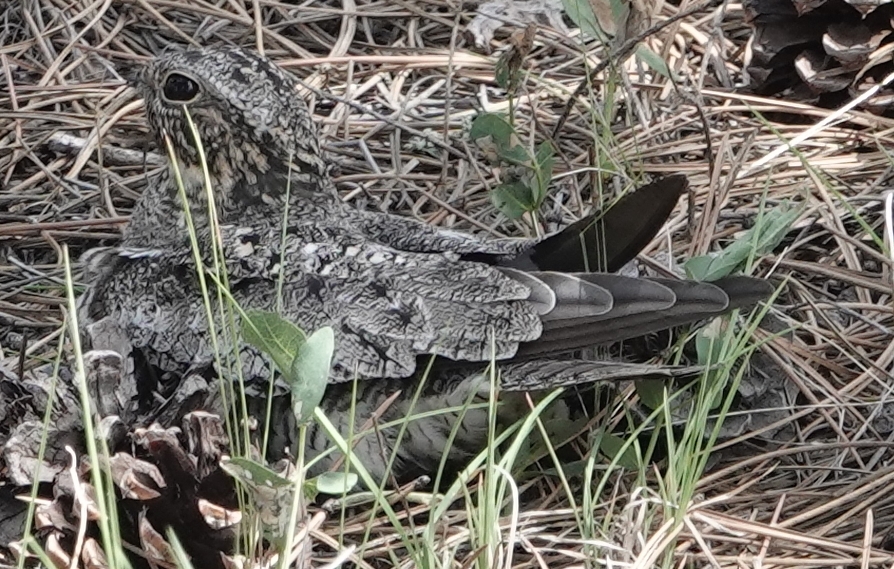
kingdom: Animalia
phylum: Chordata
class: Aves
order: Caprimulgiformes
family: Caprimulgidae
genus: Chordeiles
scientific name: Chordeiles minor
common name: Common nighthawk
